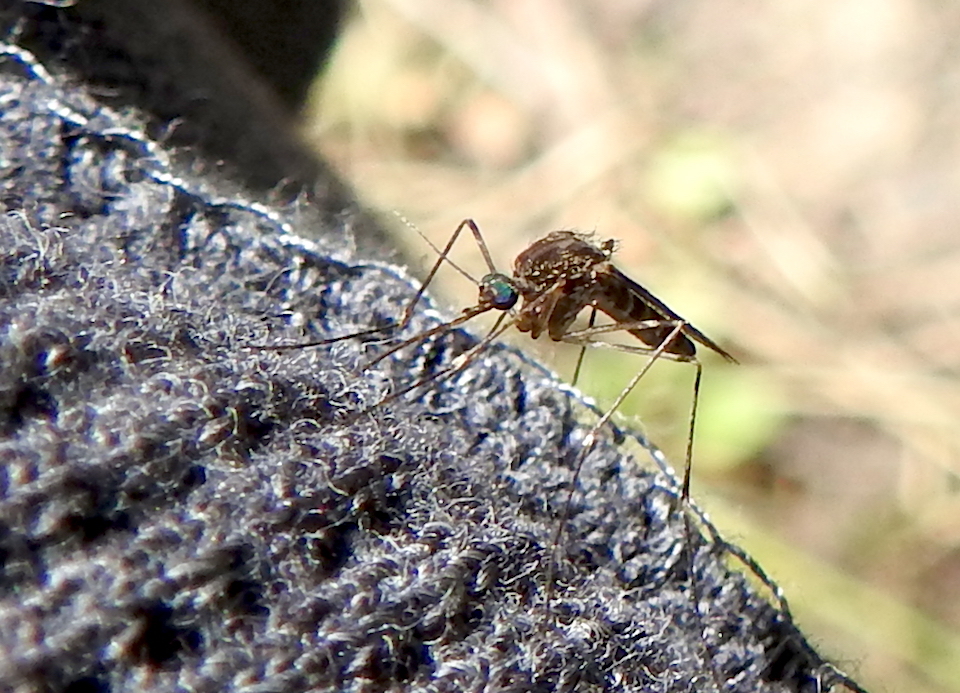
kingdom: Animalia
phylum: Arthropoda
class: Insecta
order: Diptera
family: Culicidae
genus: Culiseta
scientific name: Culiseta incidens
